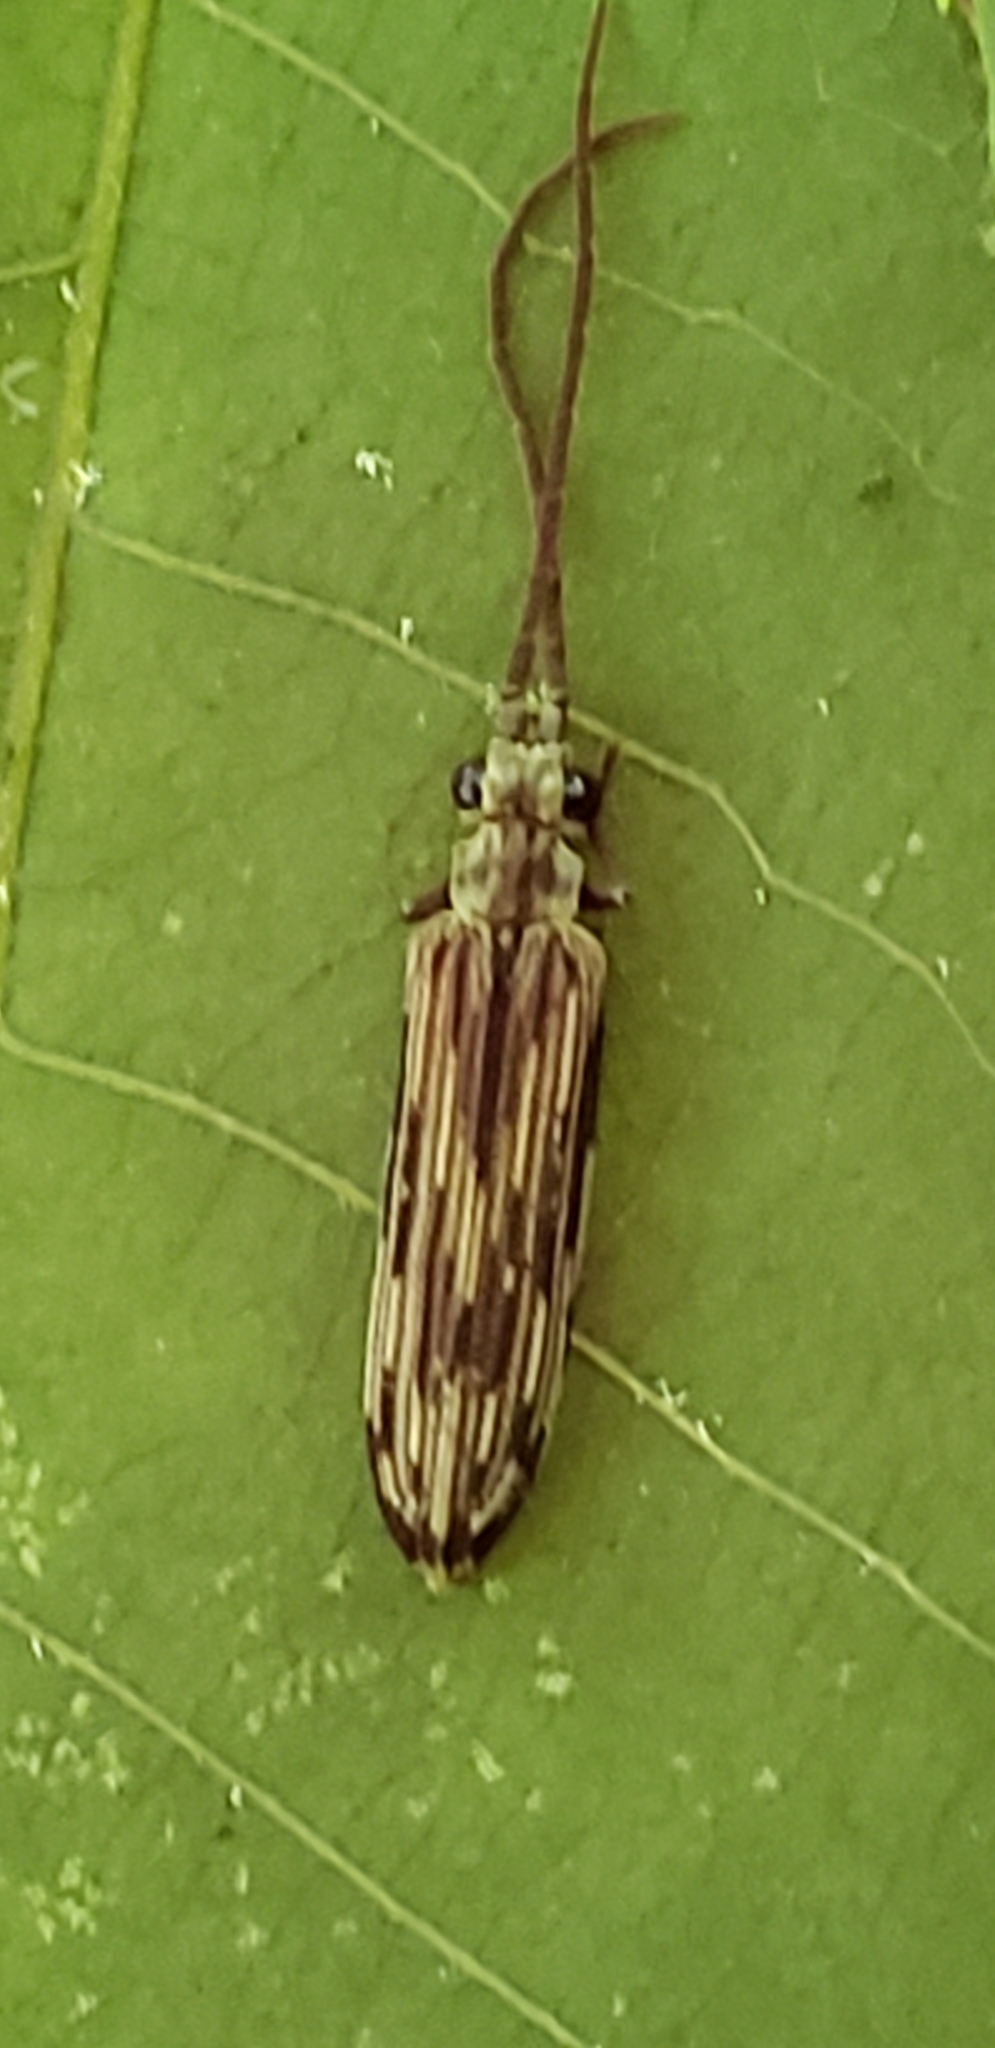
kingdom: Animalia
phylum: Arthropoda
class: Insecta
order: Coleoptera
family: Cupedidae
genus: Tenomerga
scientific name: Tenomerga cinerea
